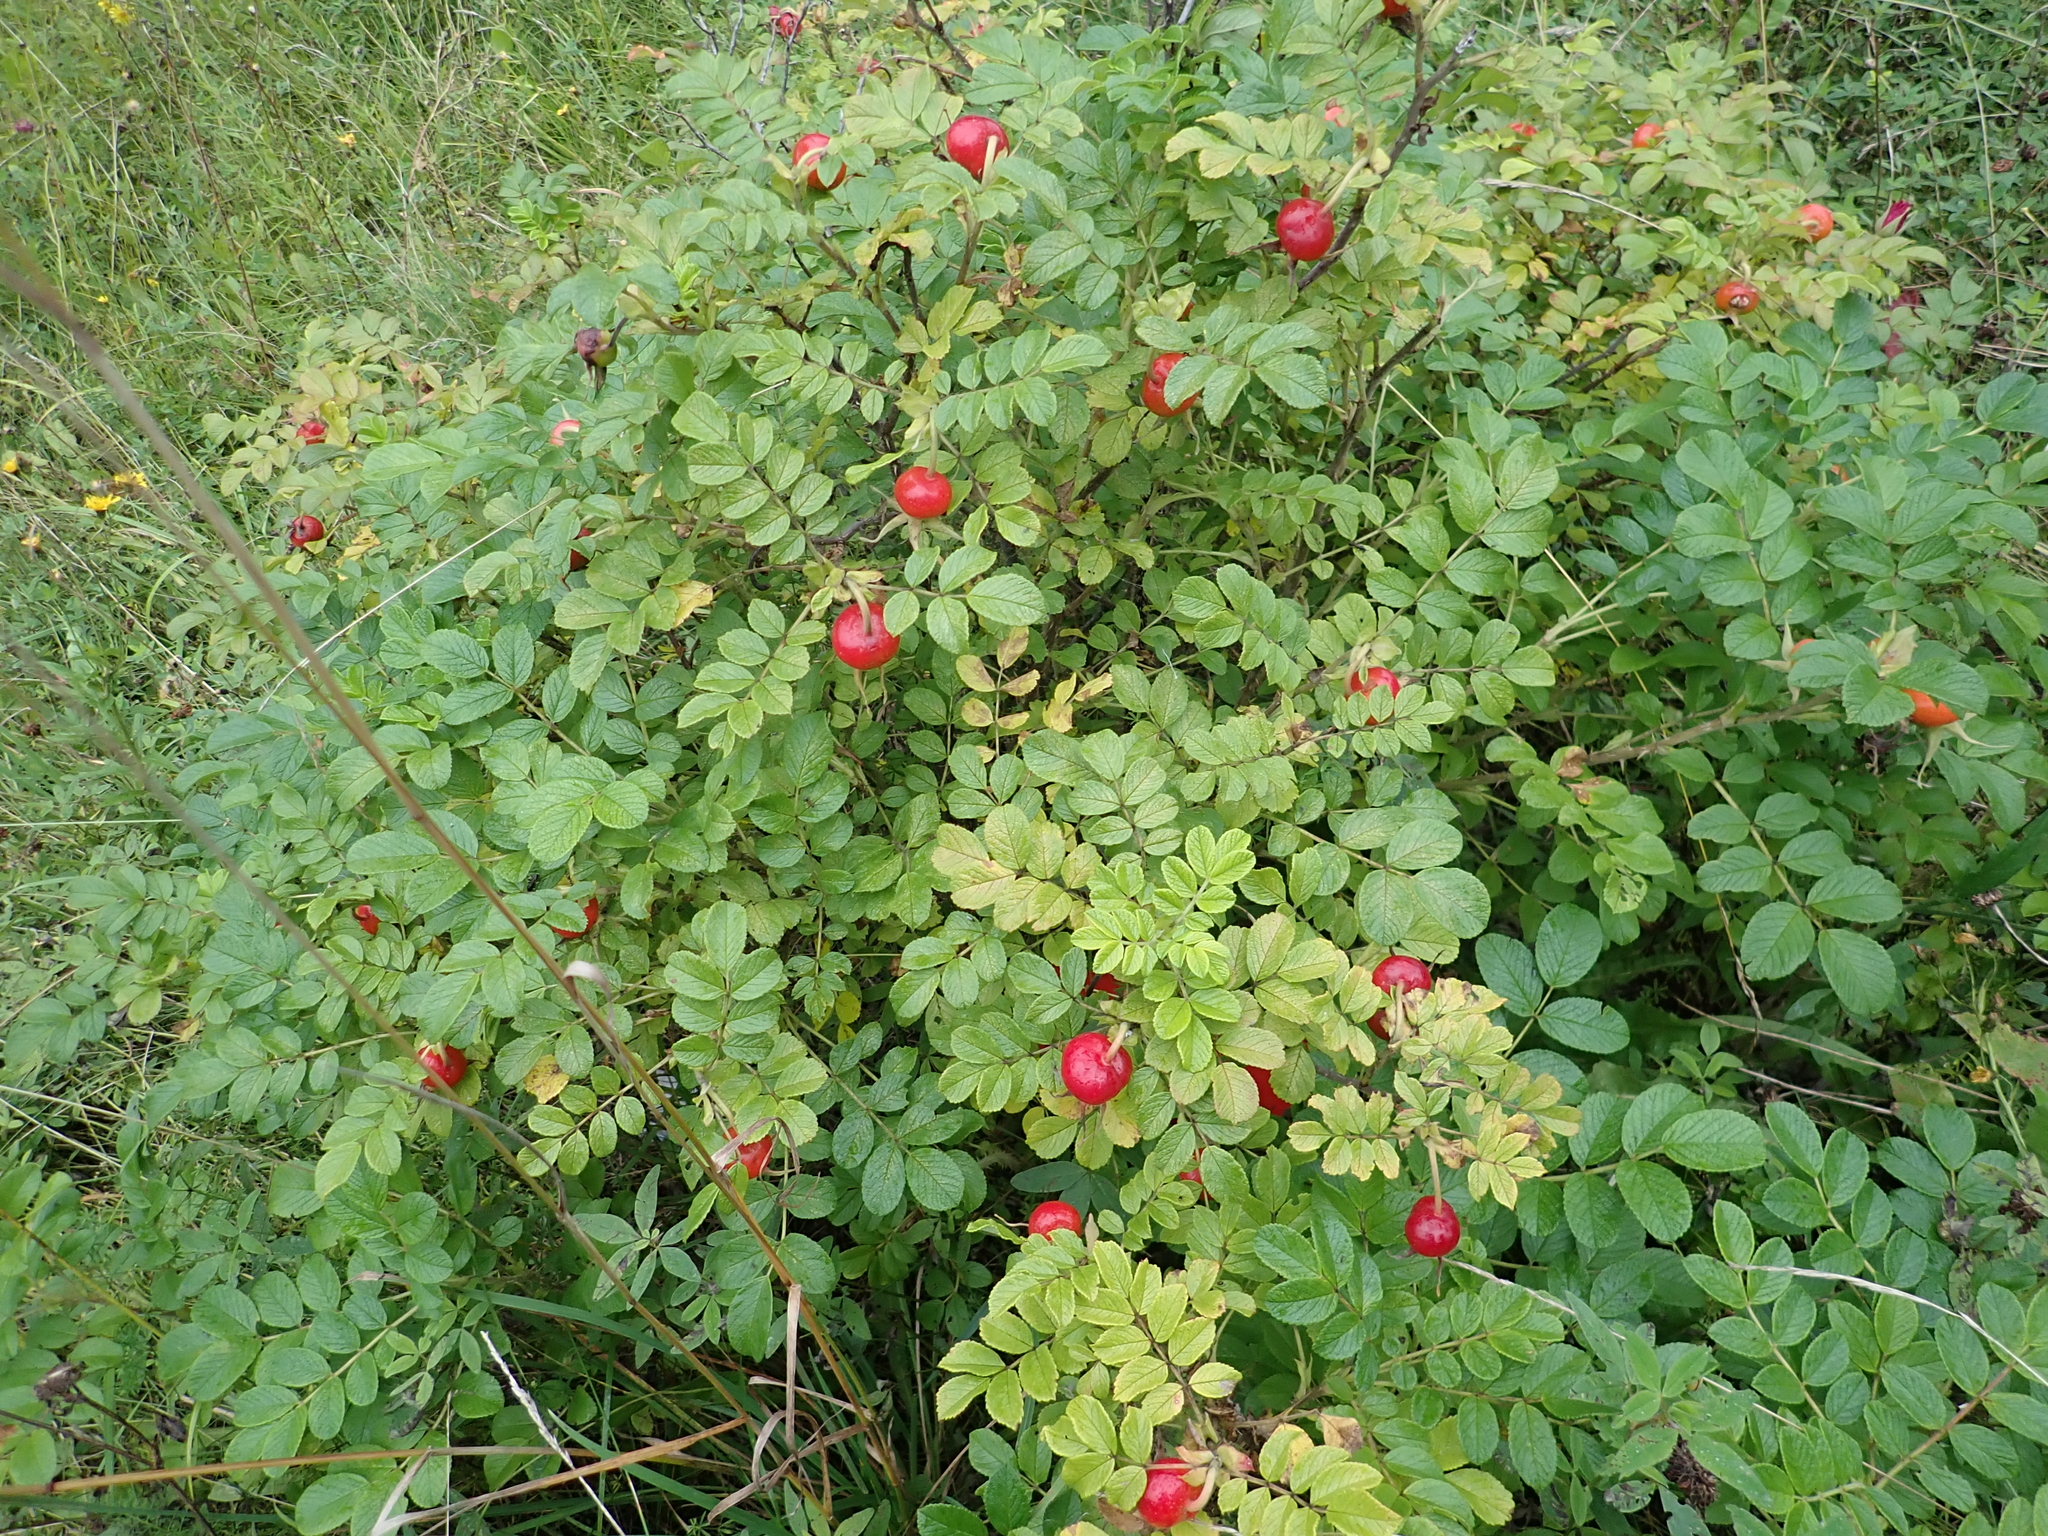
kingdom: Plantae
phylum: Tracheophyta
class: Magnoliopsida
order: Rosales
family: Rosaceae
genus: Rosa
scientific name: Rosa rugosa
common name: Japanese rose
